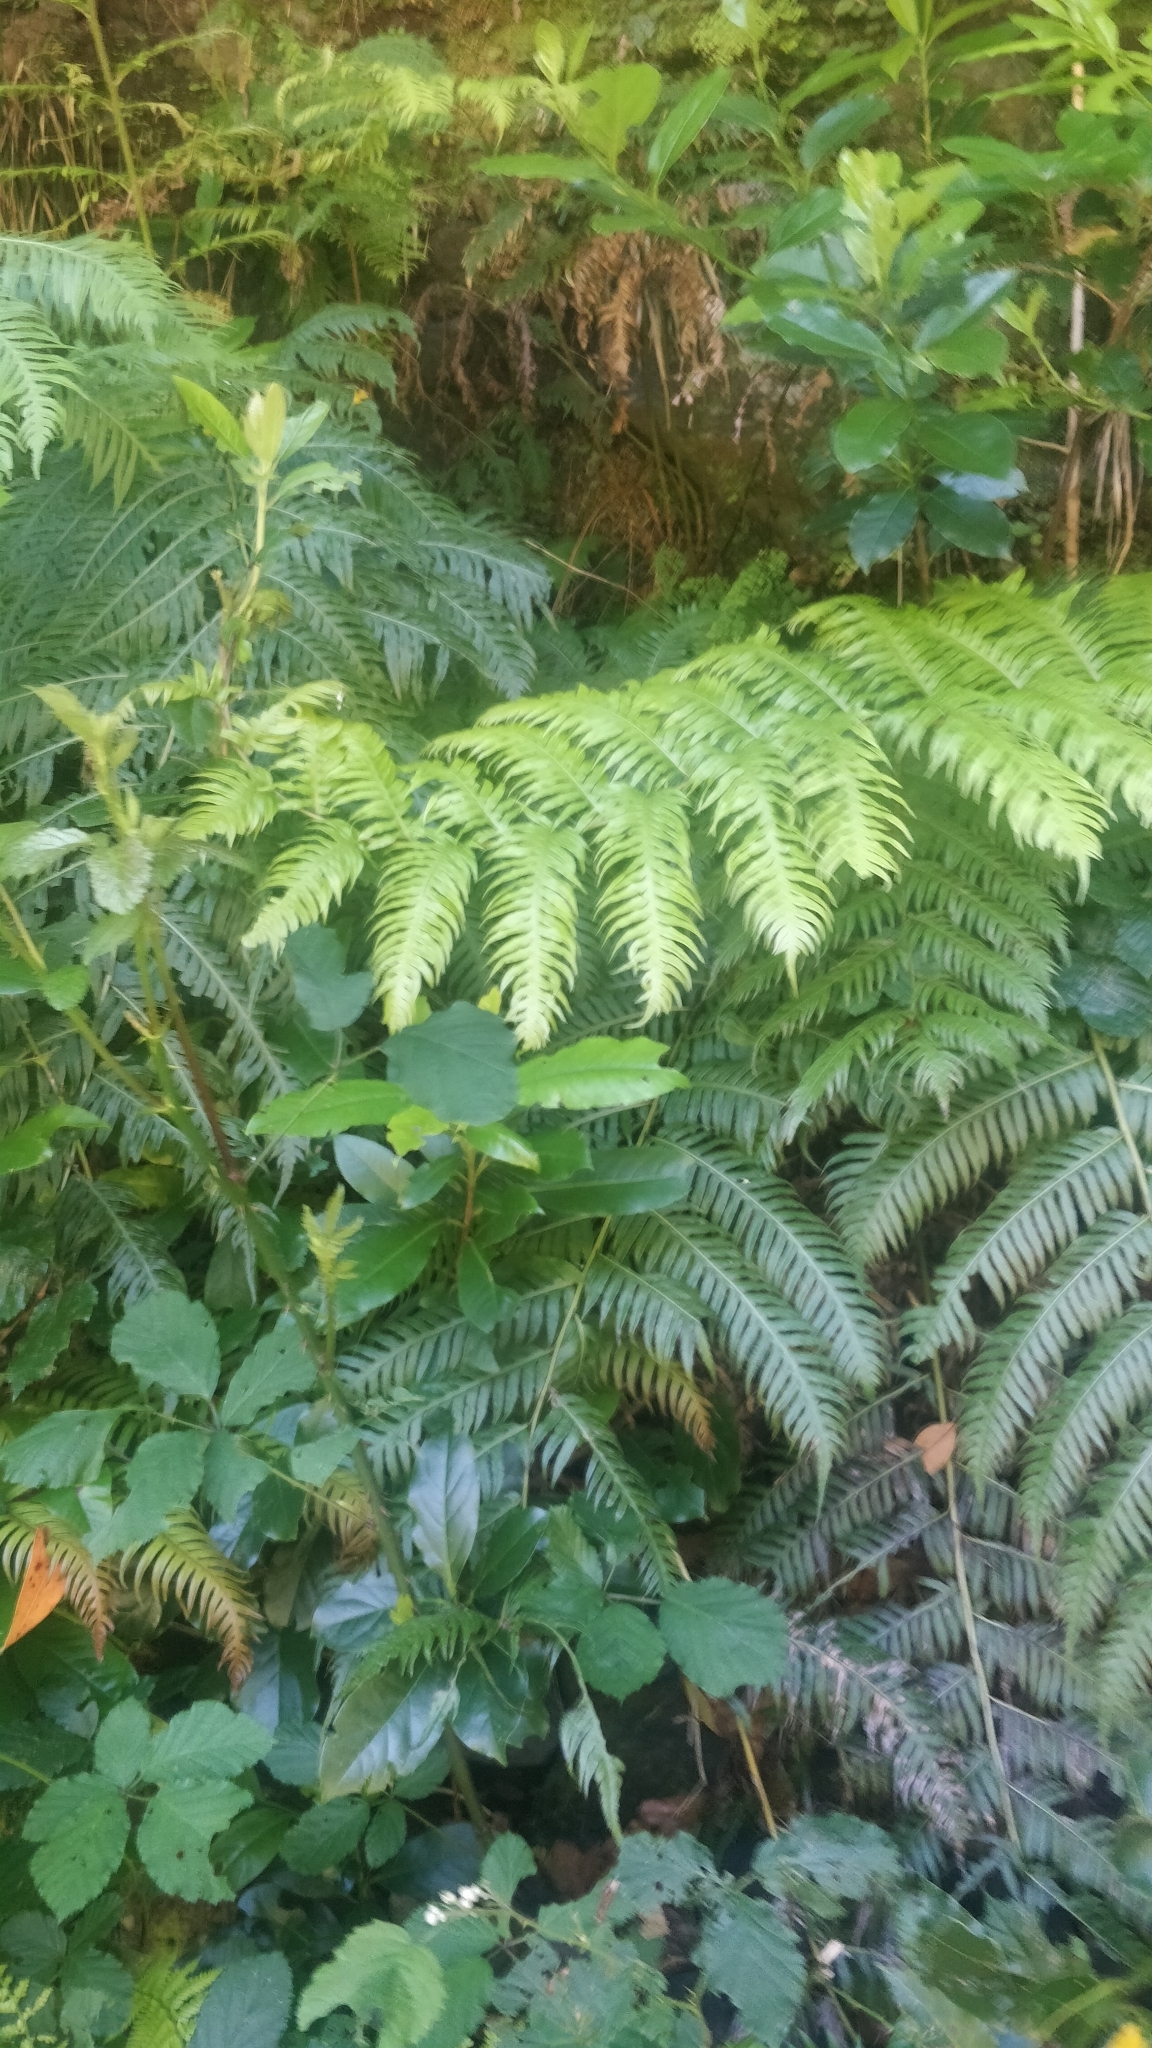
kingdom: Plantae
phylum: Tracheophyta
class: Polypodiopsida
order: Polypodiales
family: Blechnaceae
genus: Woodwardia
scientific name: Woodwardia radicans
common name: Rooting chainfern
